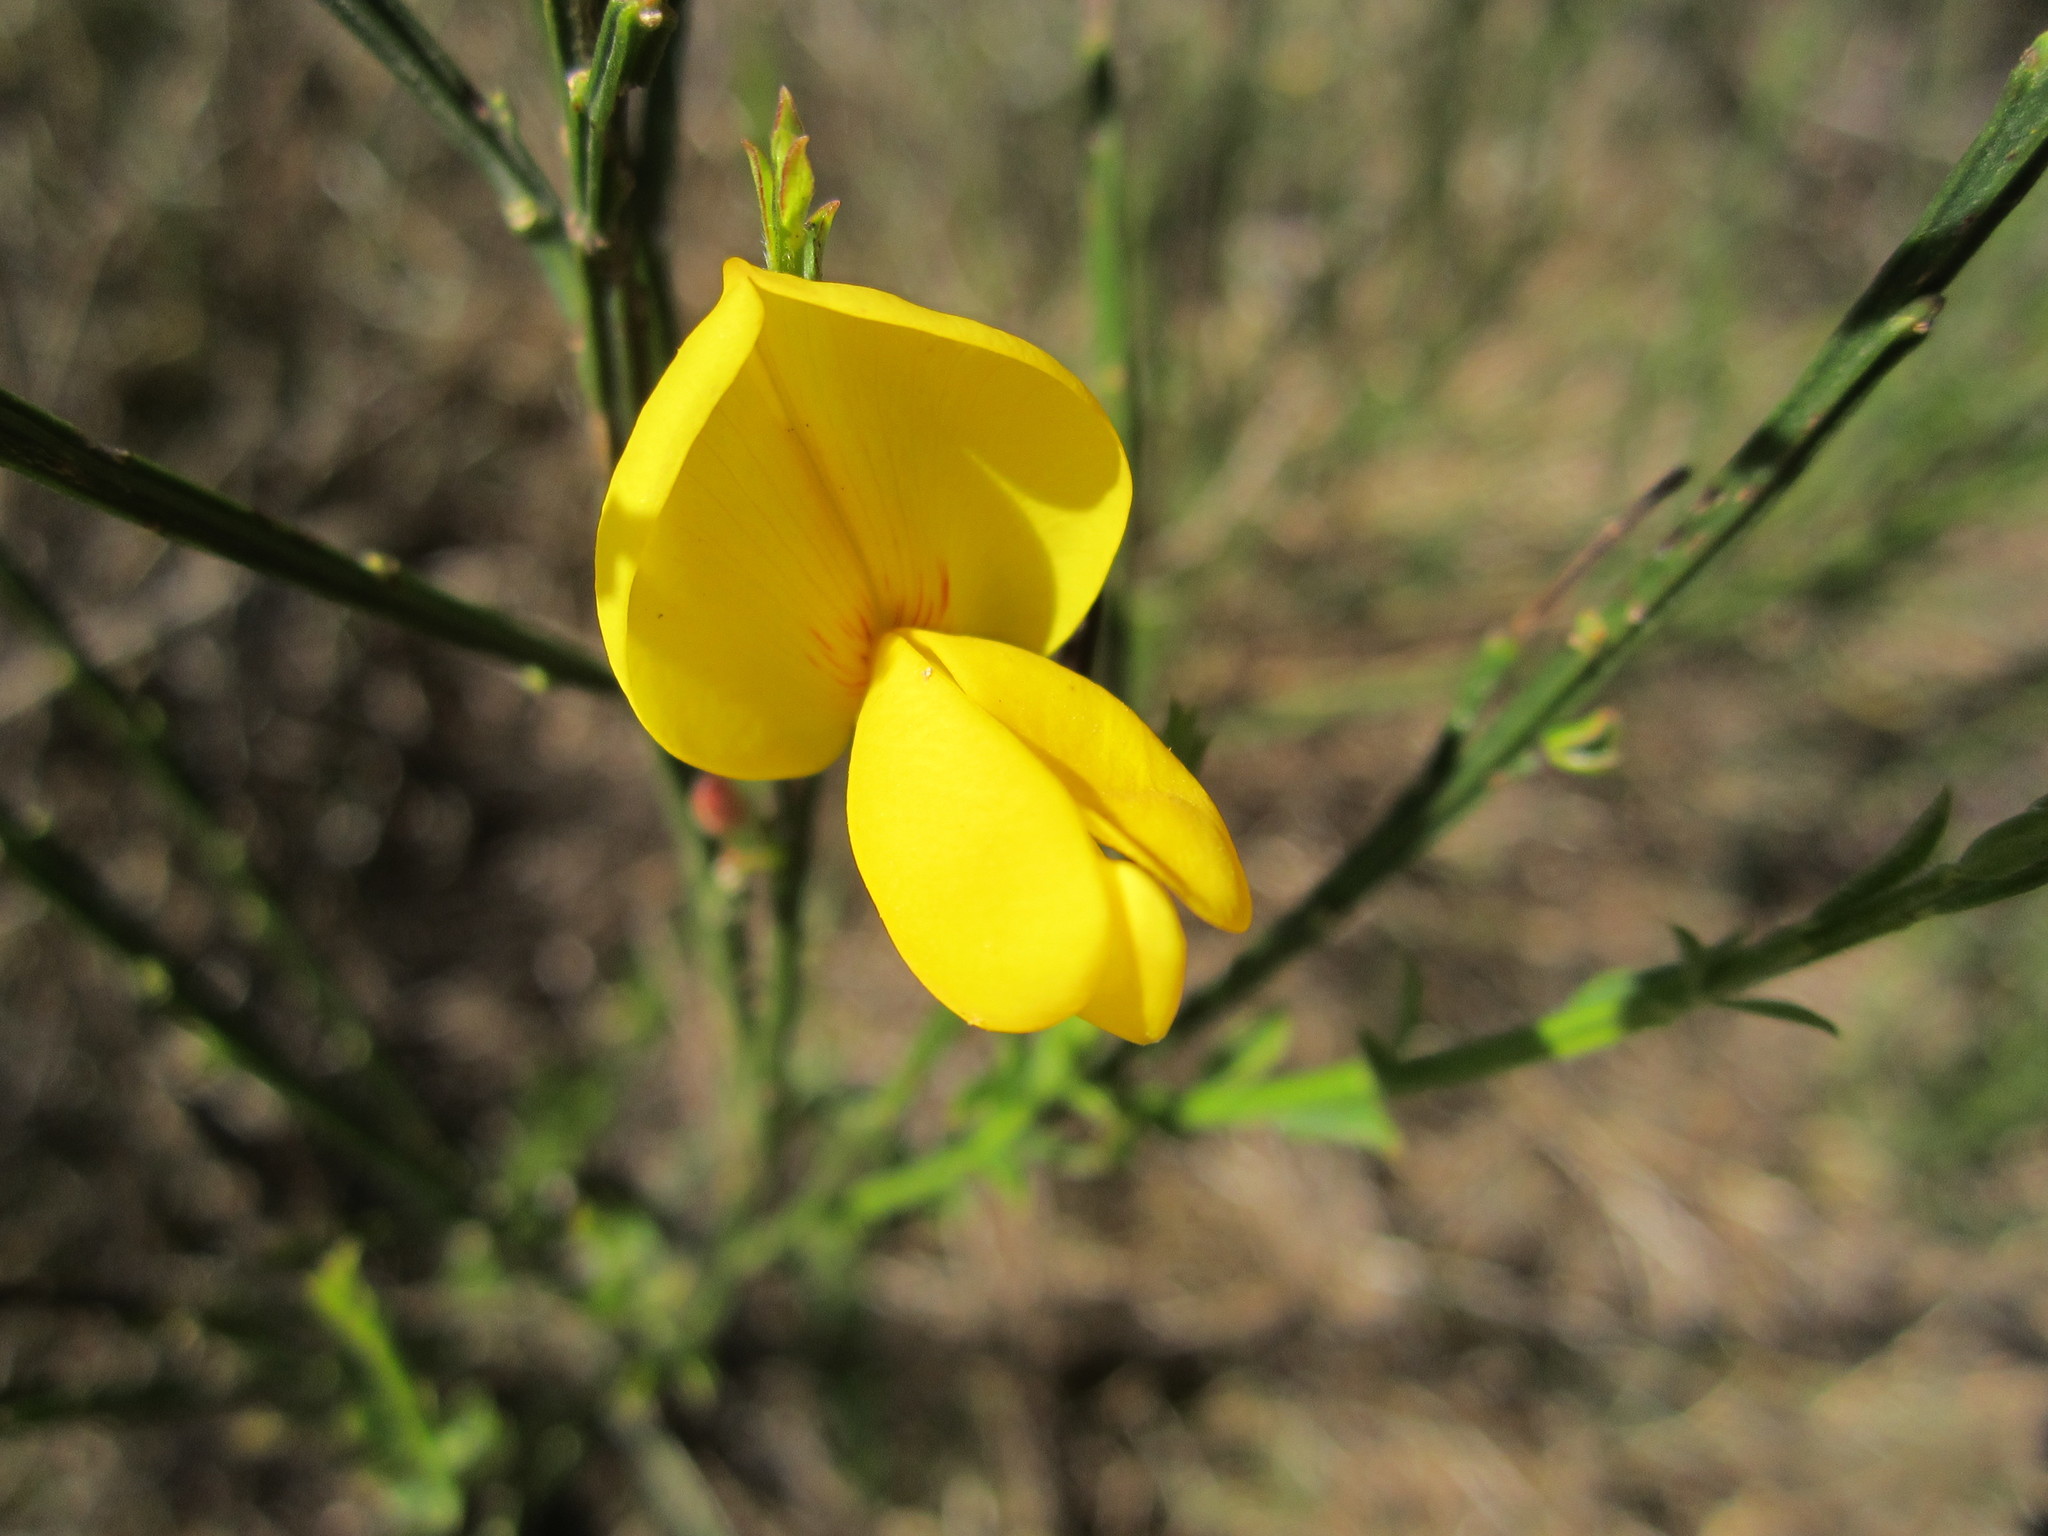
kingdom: Plantae
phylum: Tracheophyta
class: Magnoliopsida
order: Fabales
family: Fabaceae
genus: Cytisus
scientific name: Cytisus scoparius
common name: Scotch broom
